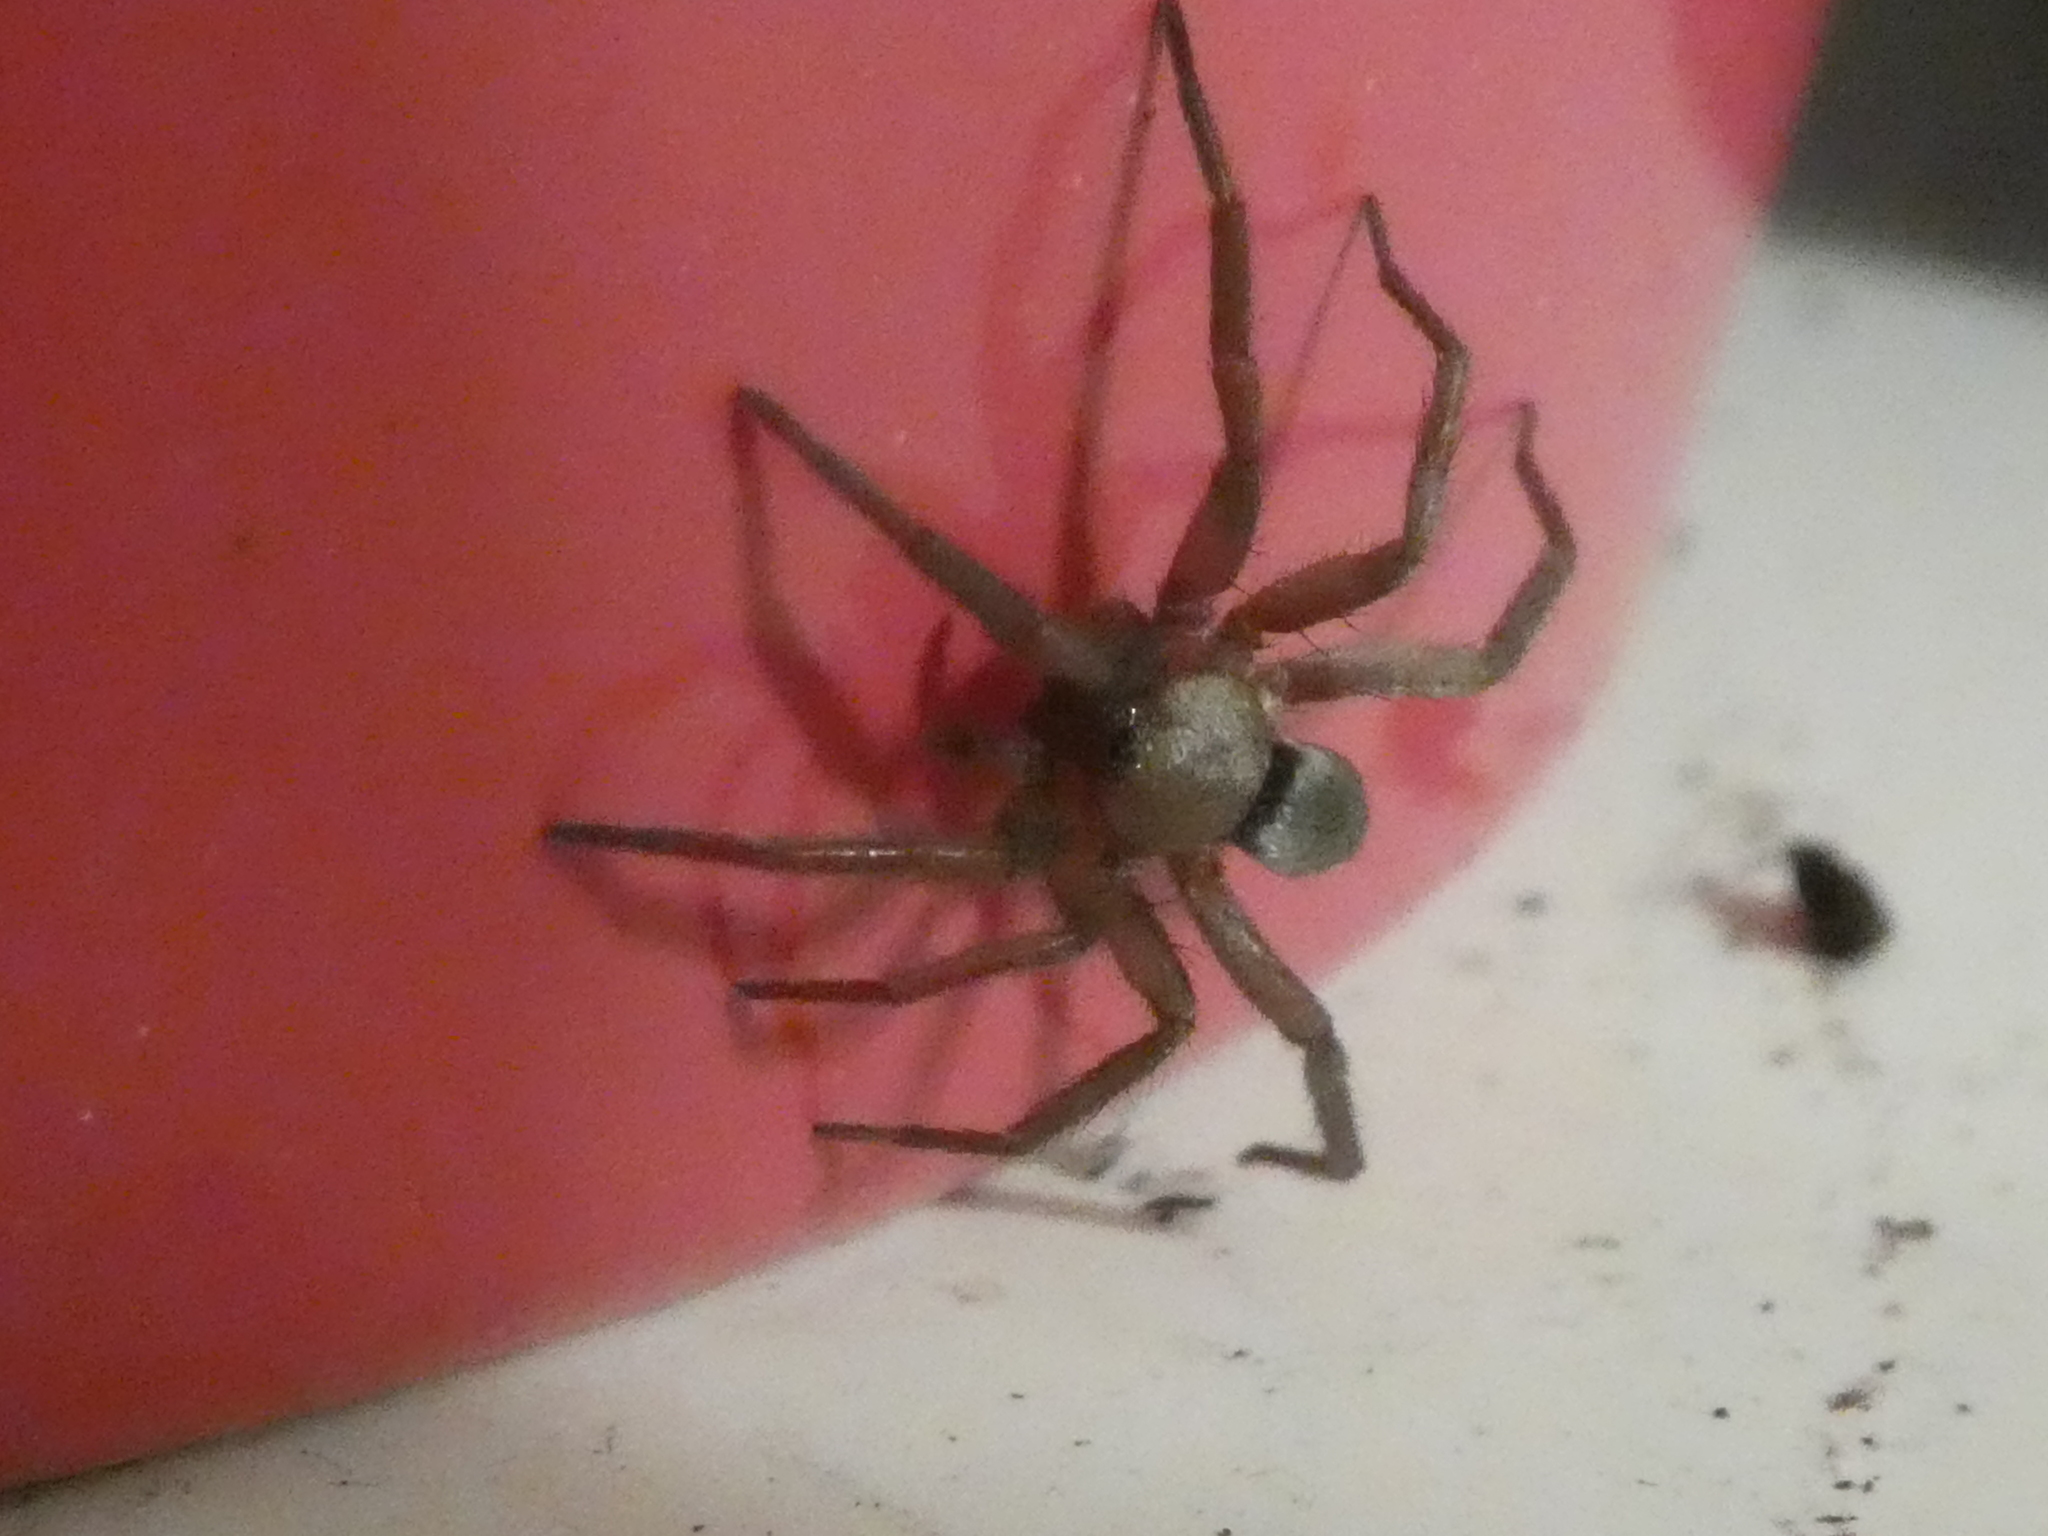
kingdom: Animalia
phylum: Arthropoda
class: Arachnida
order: Araneae
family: Gnaphosidae
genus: Scotophaeus
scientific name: Scotophaeus blackwalli
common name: Mouse spider
